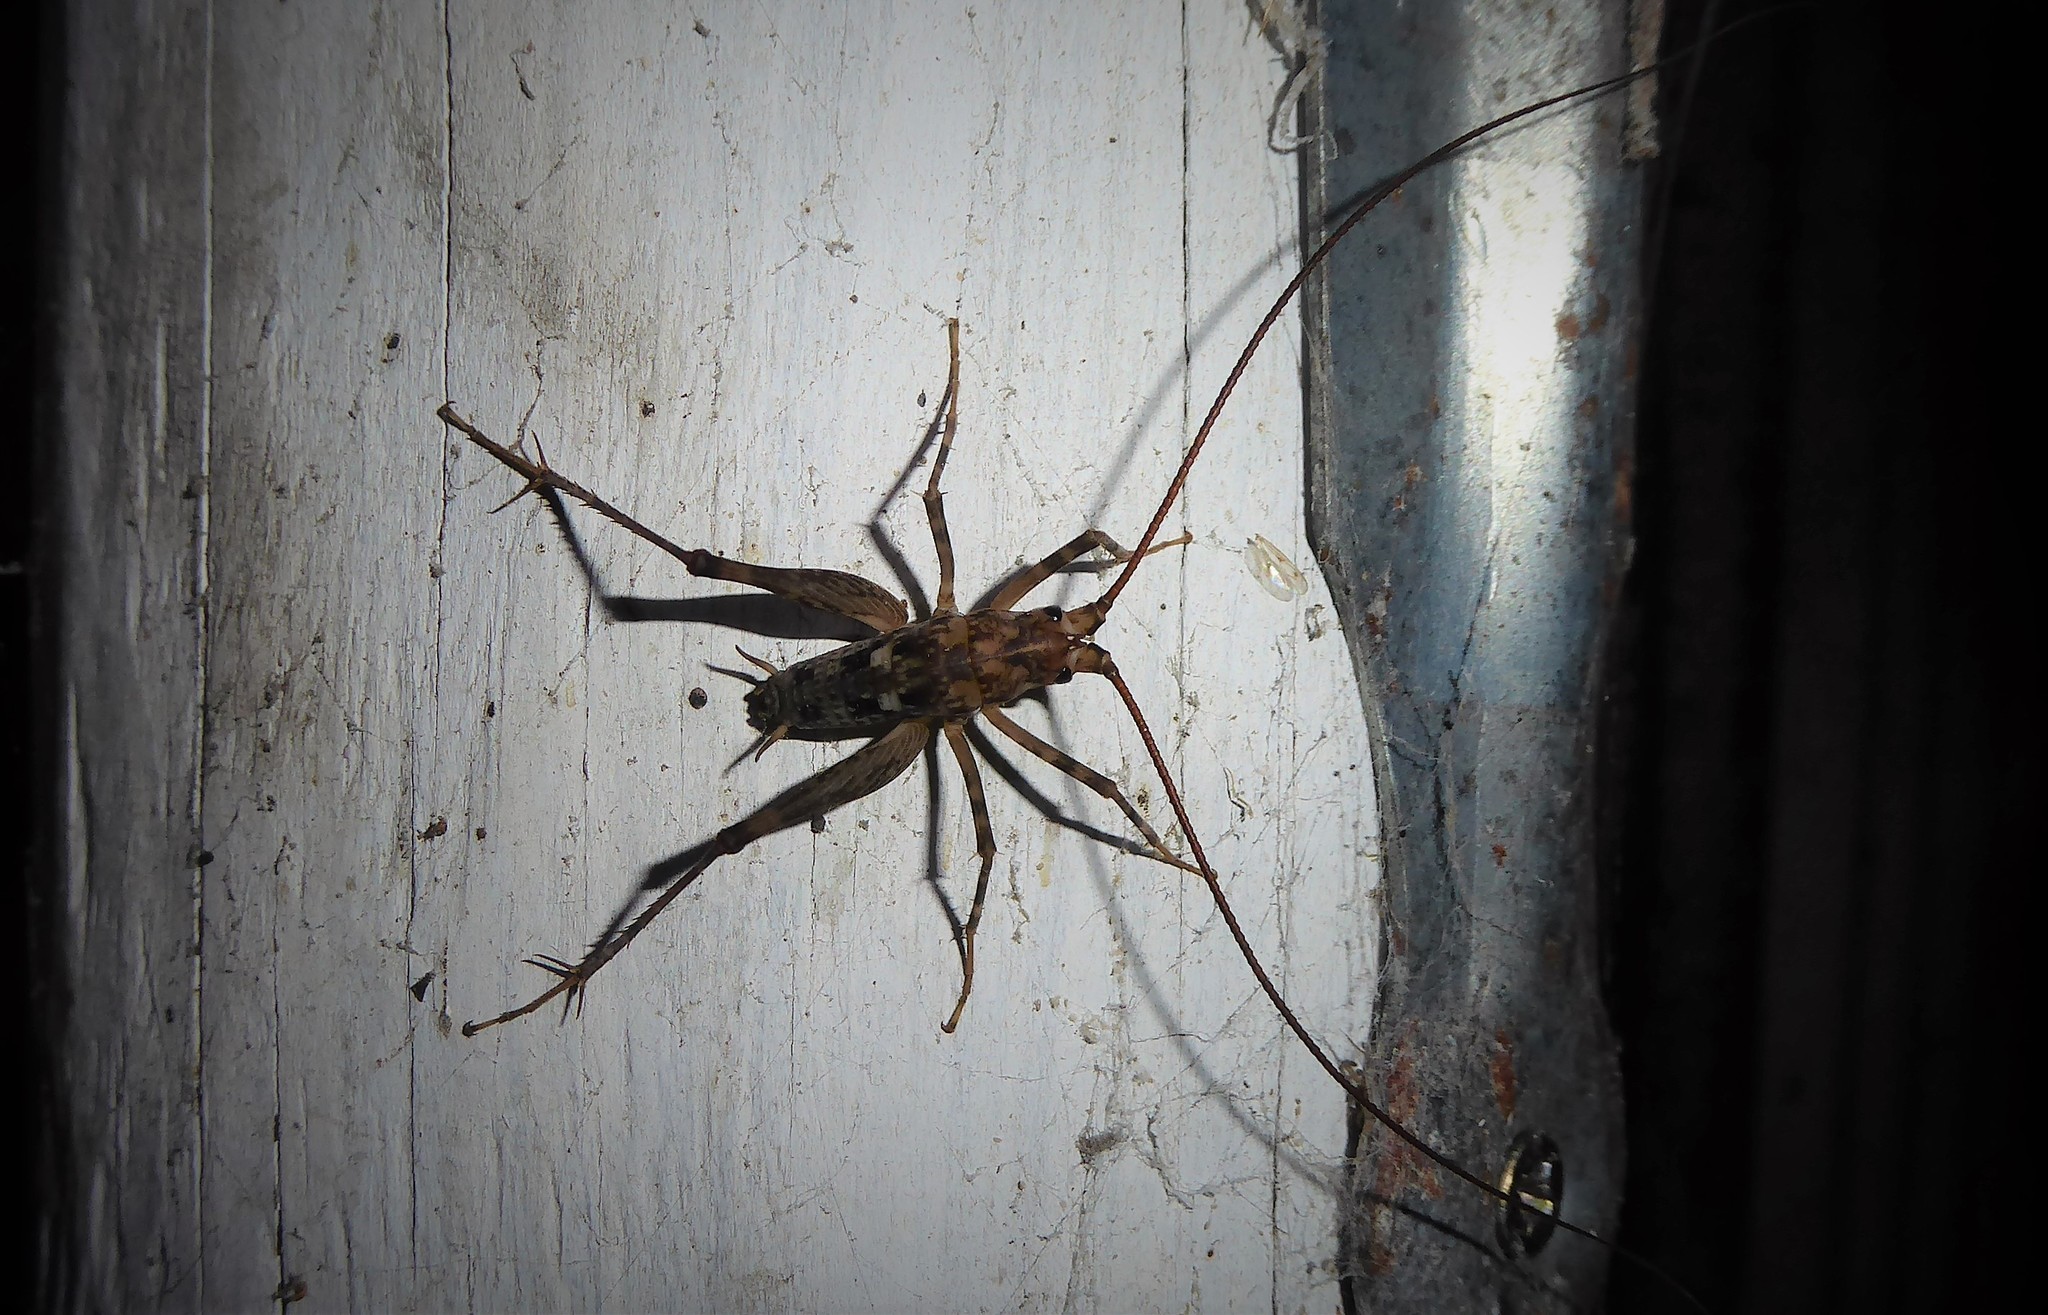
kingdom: Animalia
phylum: Arthropoda
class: Insecta
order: Orthoptera
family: Rhaphidophoridae
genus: Pleioplectron
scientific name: Pleioplectron simplex
